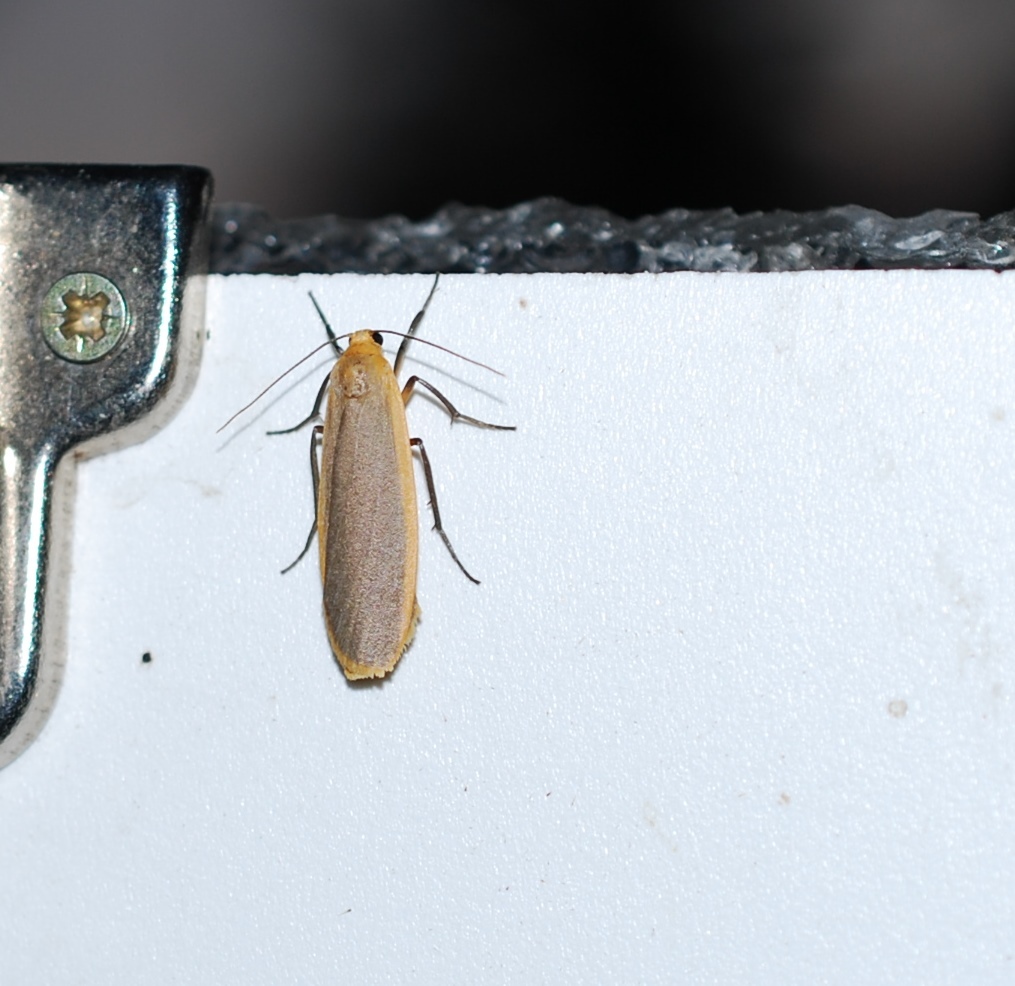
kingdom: Animalia
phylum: Arthropoda
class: Insecta
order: Lepidoptera
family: Erebidae
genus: Katha
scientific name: Katha depressa
